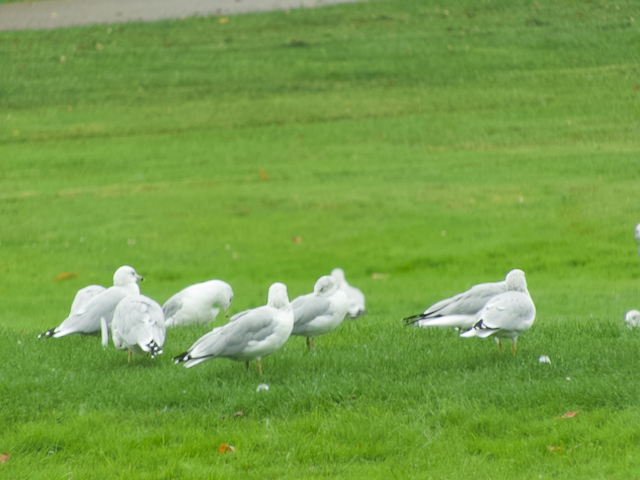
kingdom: Animalia
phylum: Chordata
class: Aves
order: Charadriiformes
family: Laridae
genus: Larus
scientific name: Larus delawarensis
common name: Ring-billed gull
